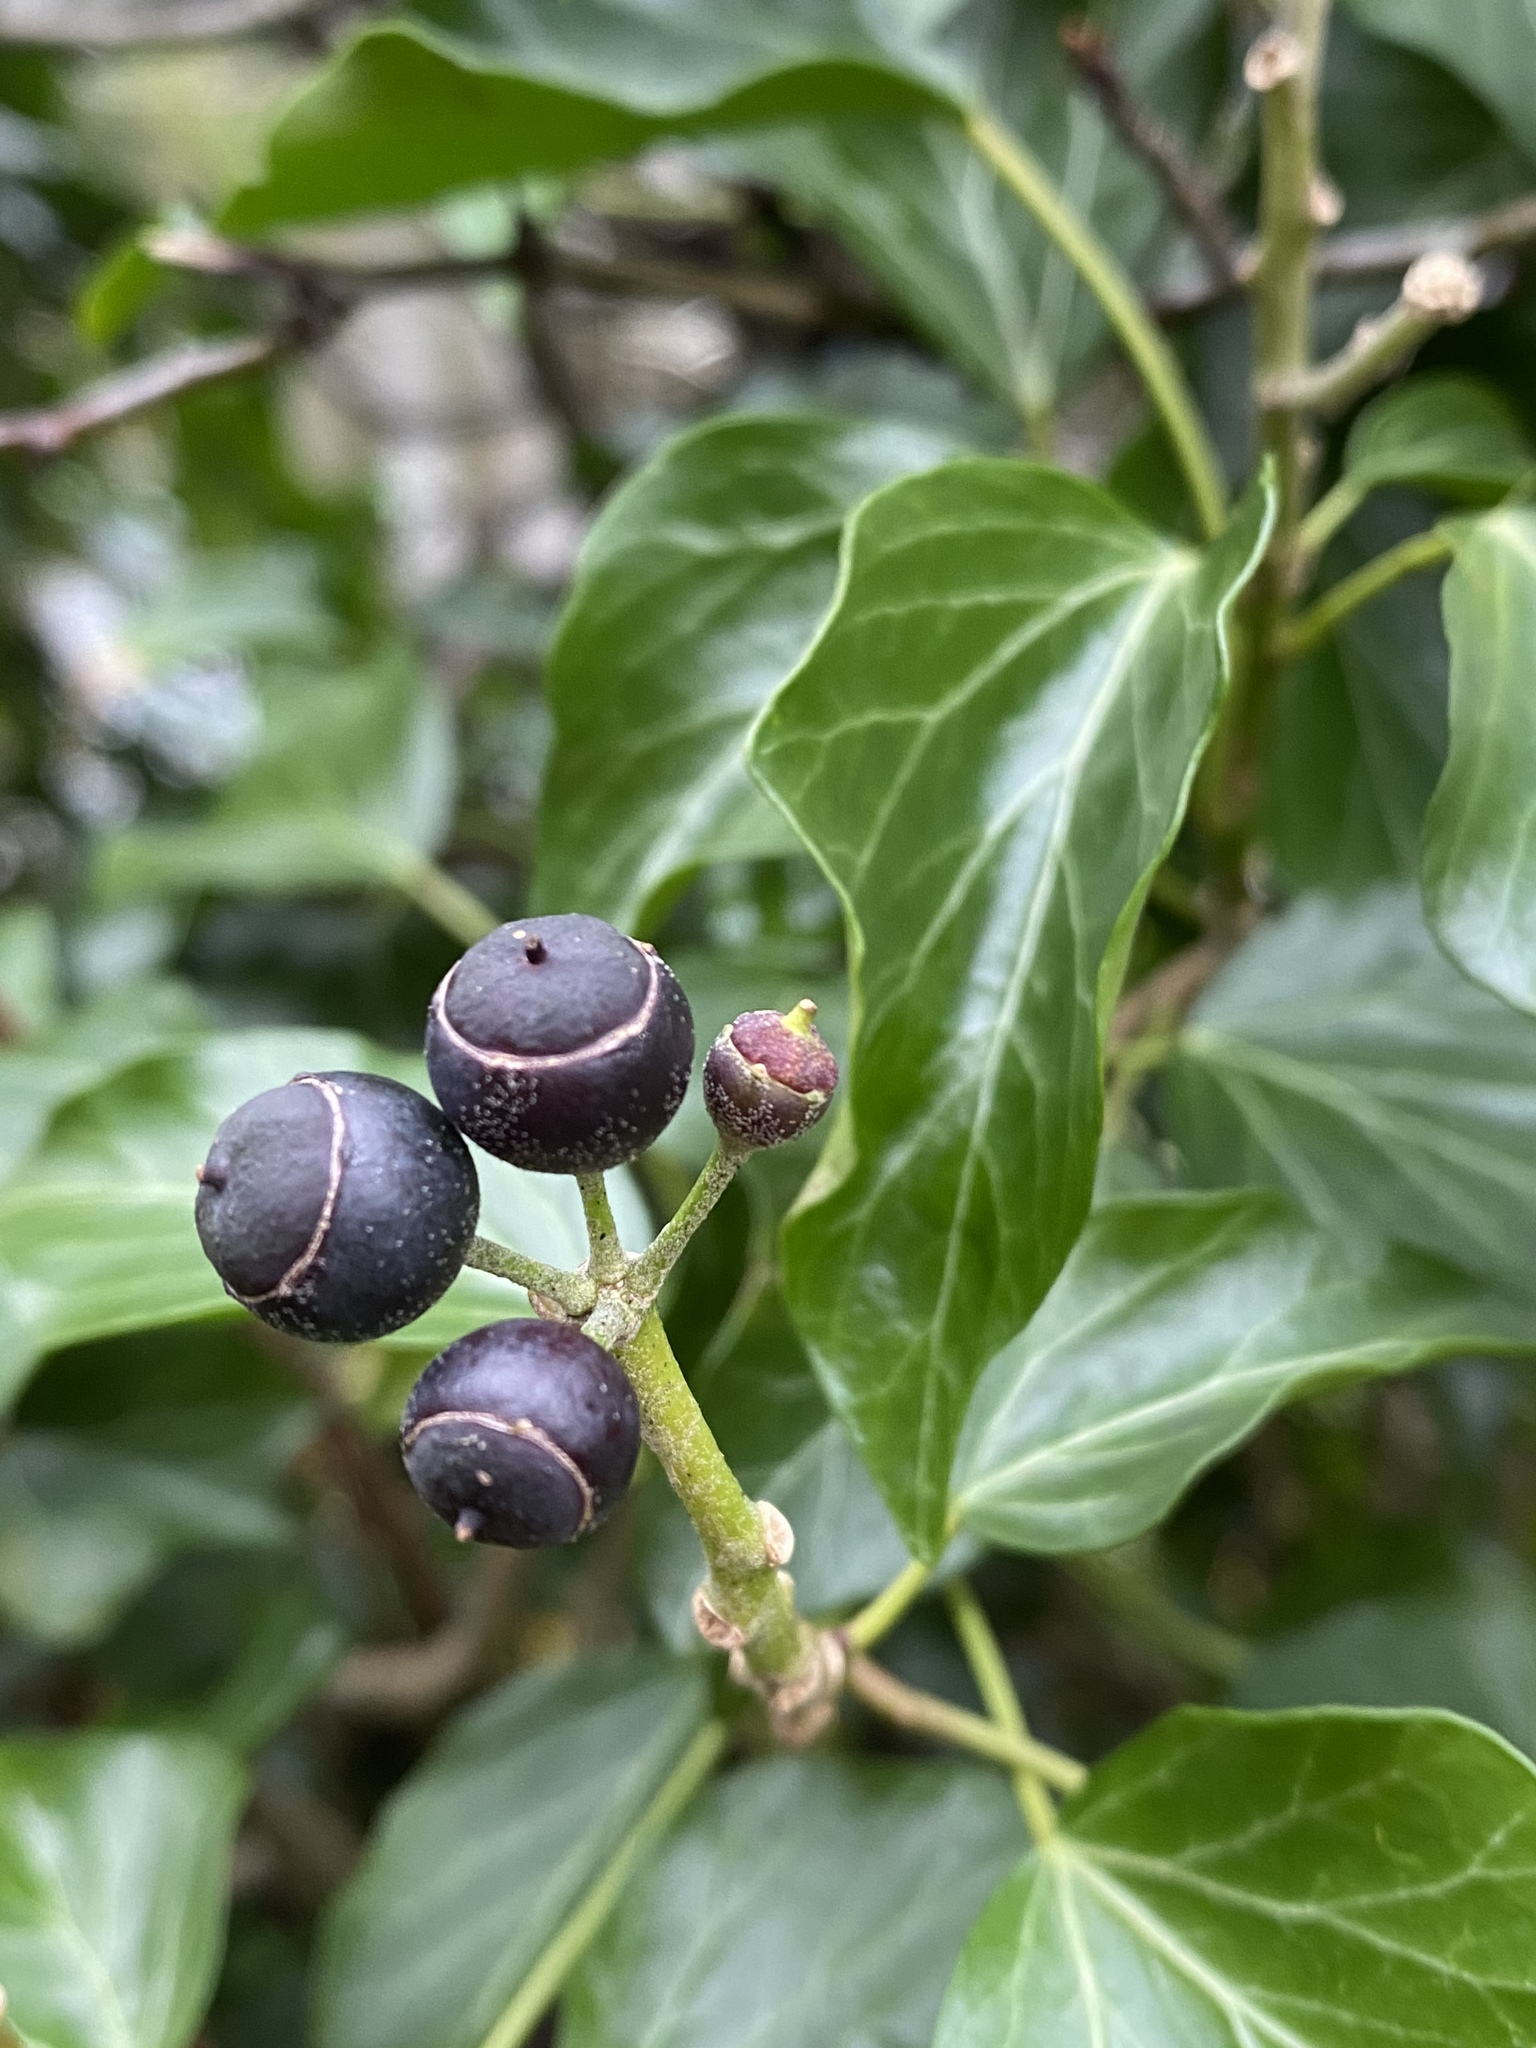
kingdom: Plantae
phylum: Tracheophyta
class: Magnoliopsida
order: Apiales
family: Araliaceae
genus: Hedera
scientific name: Hedera helix
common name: Ivy
